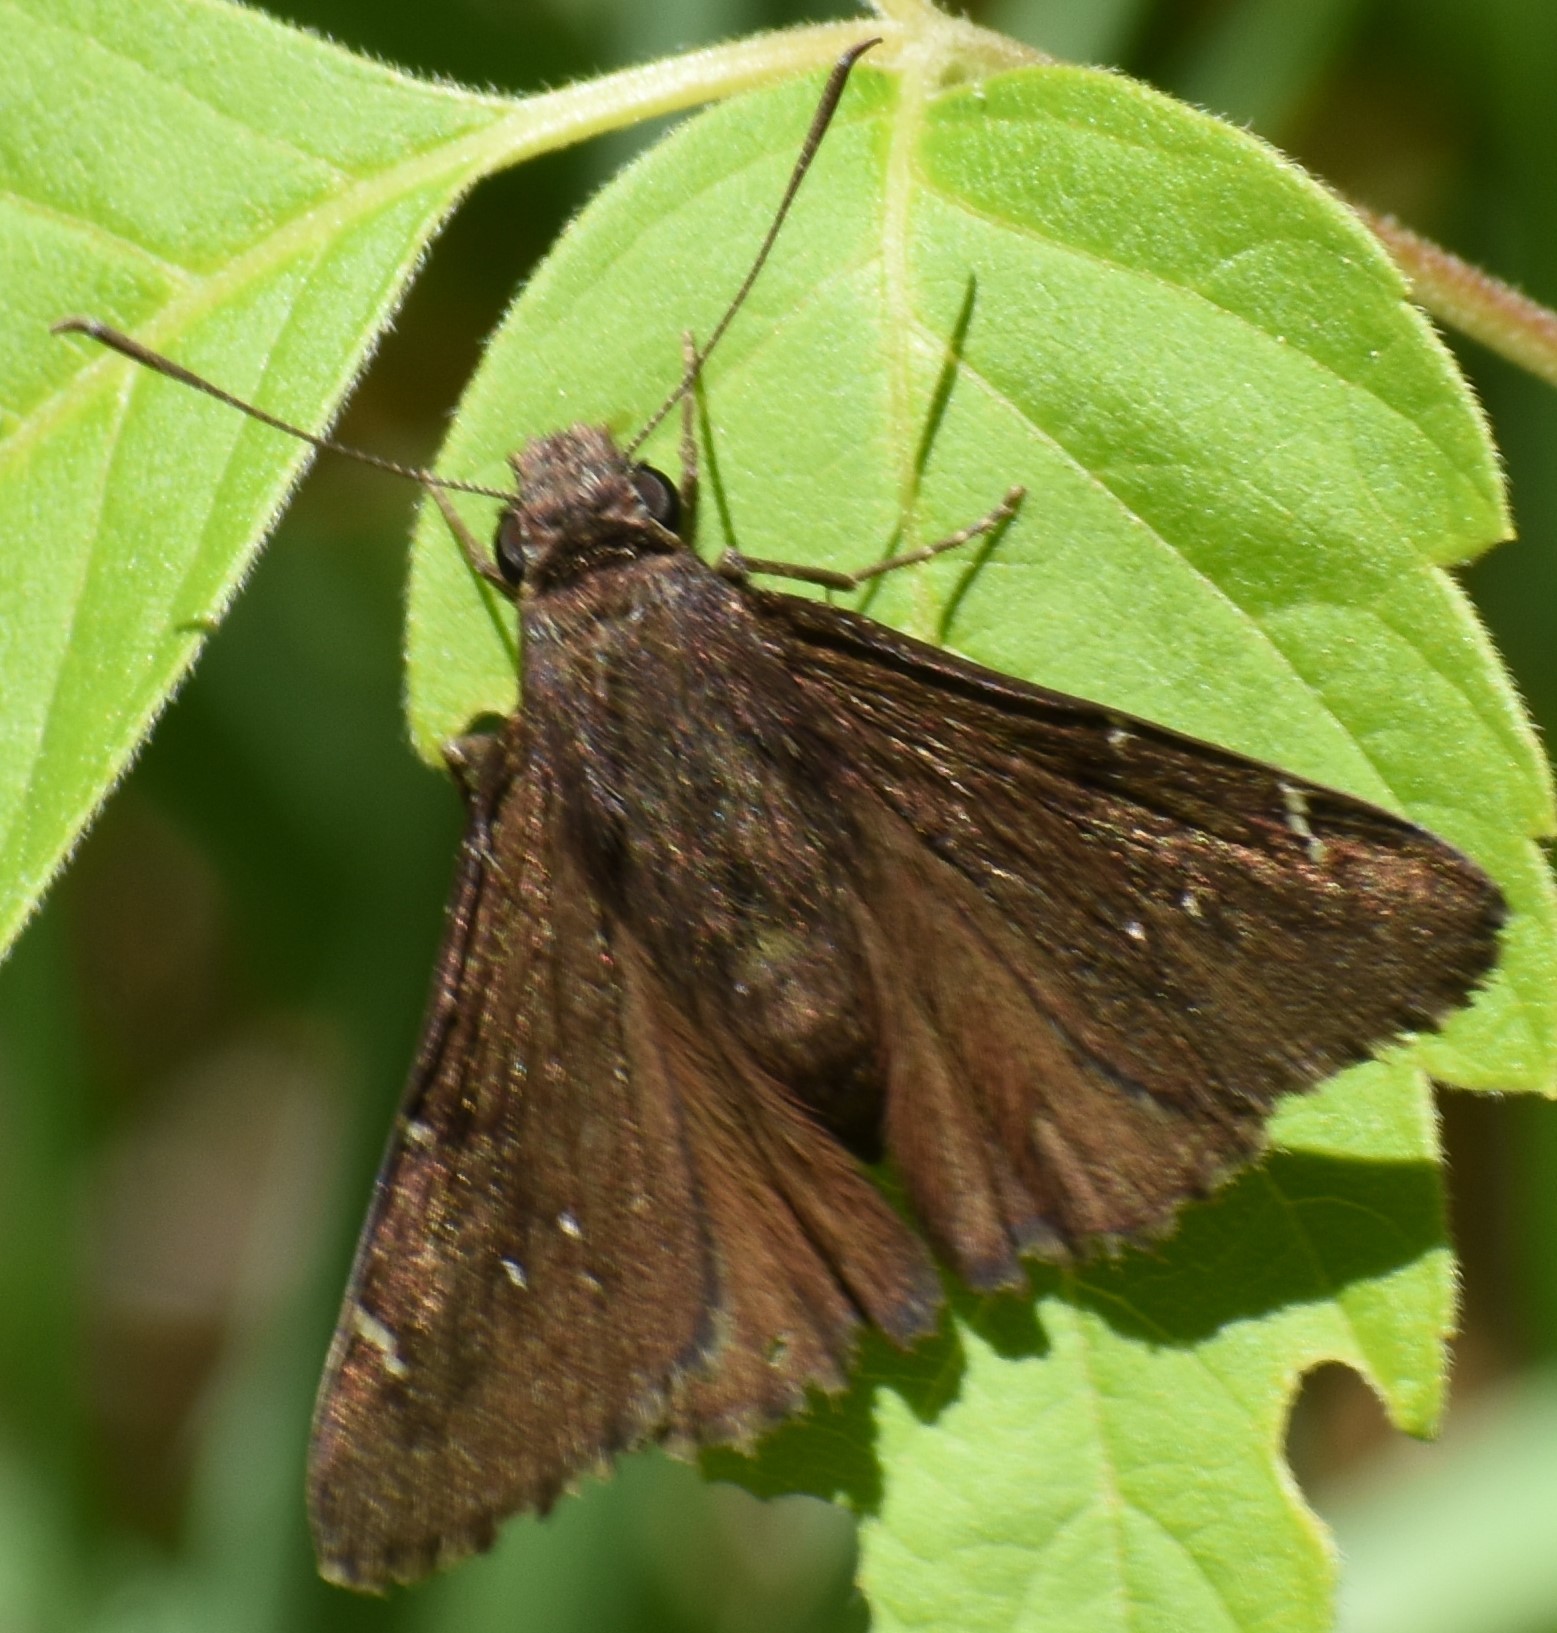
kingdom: Animalia
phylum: Arthropoda
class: Insecta
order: Lepidoptera
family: Hesperiidae
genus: Thorybes
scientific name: Thorybes pylades
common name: Northern cloudywing
